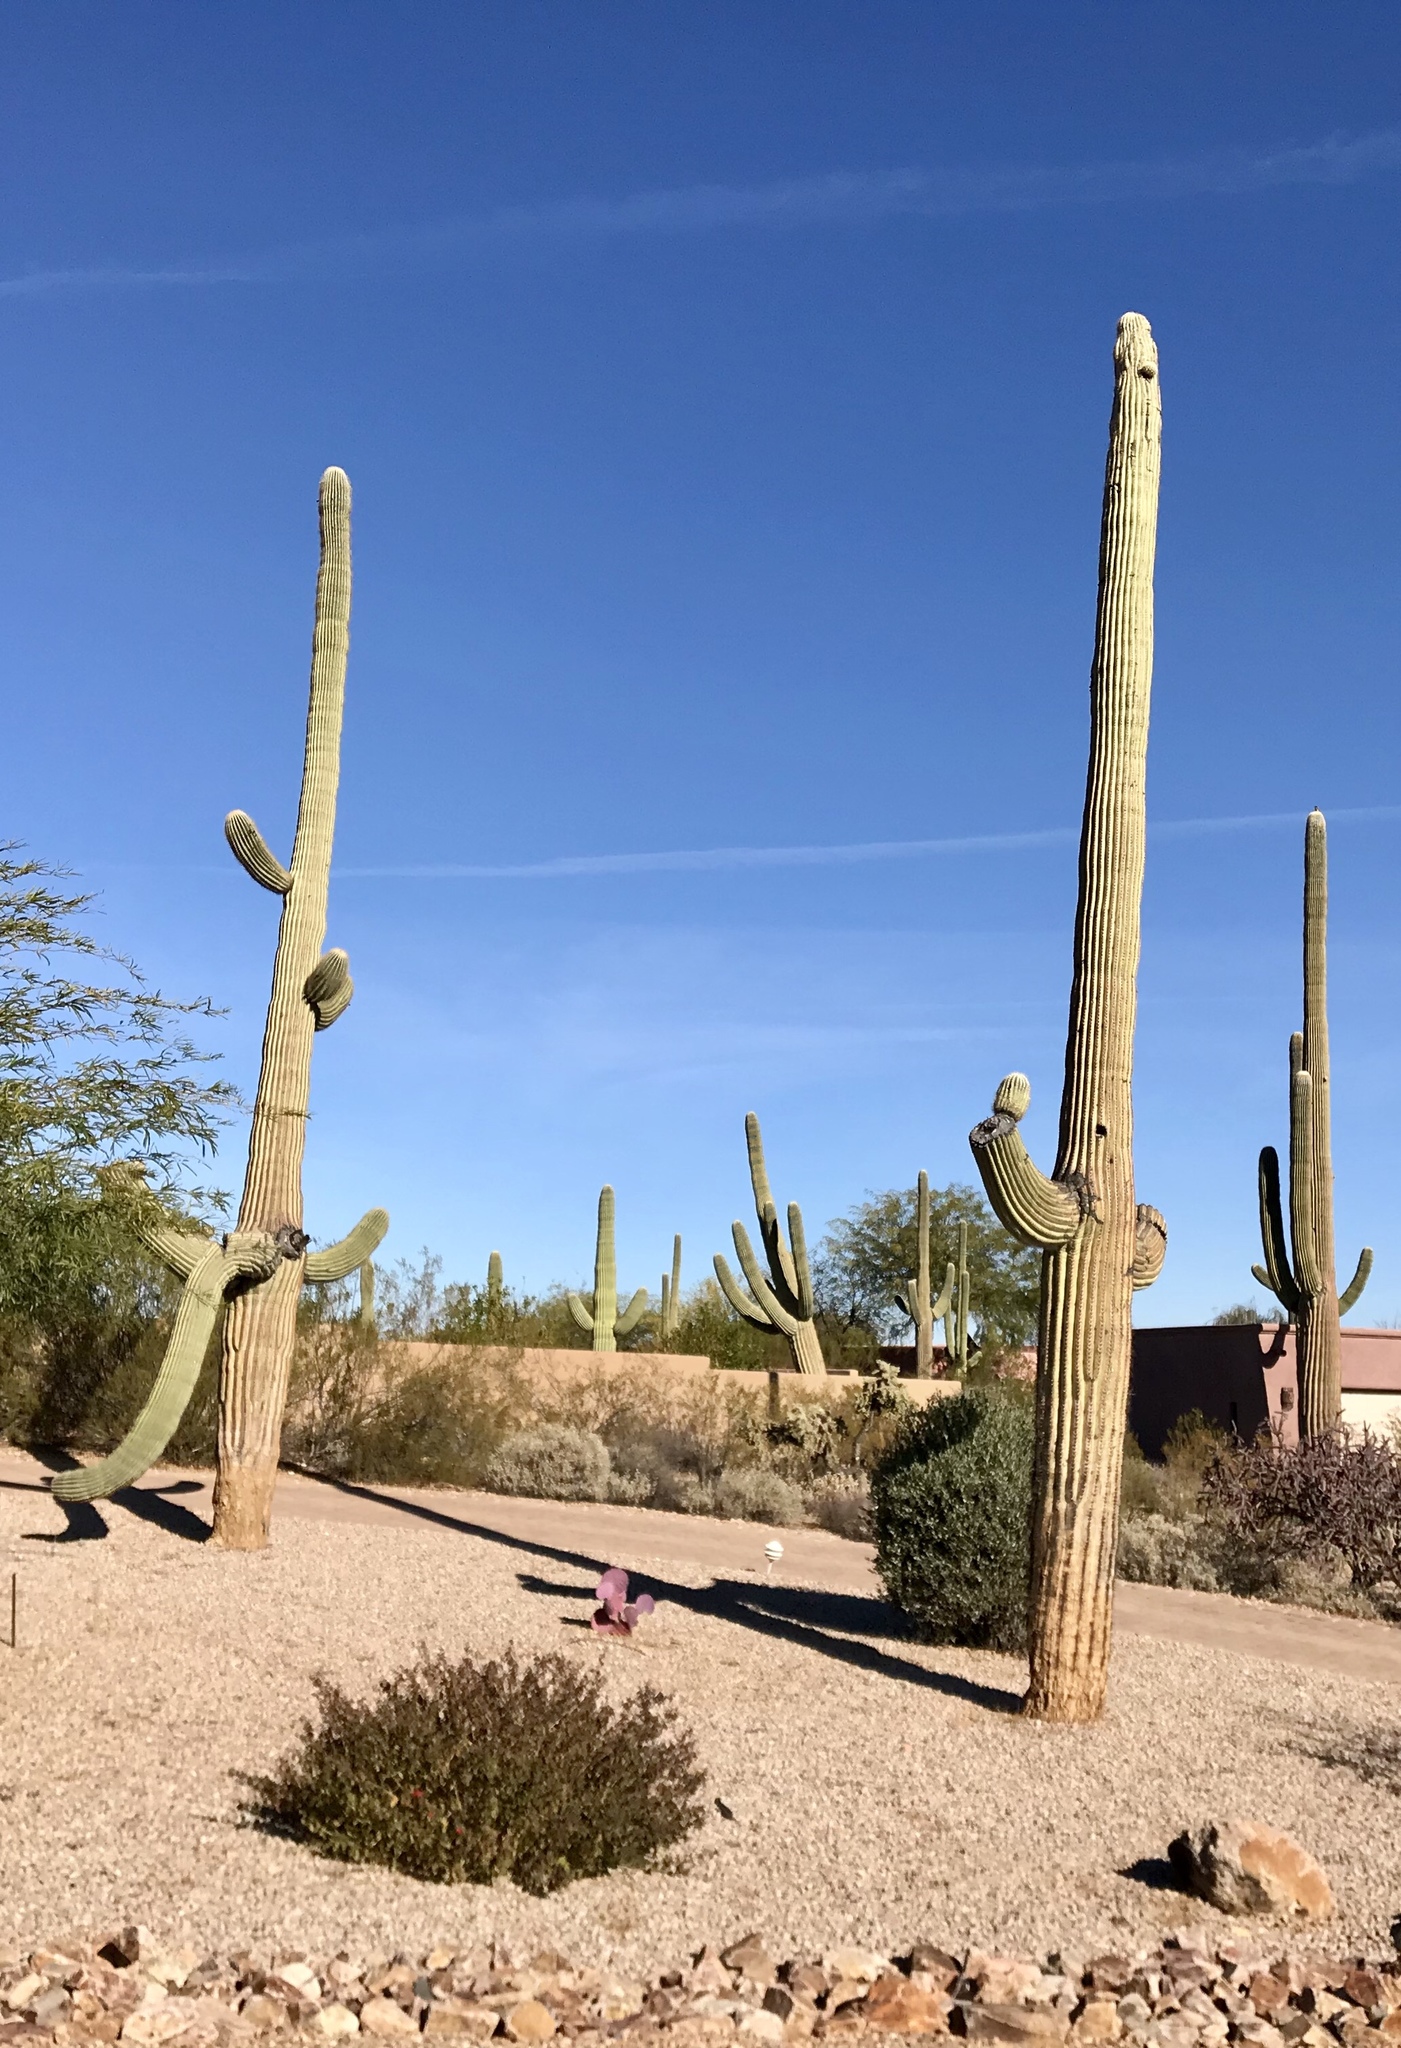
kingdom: Plantae
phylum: Tracheophyta
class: Magnoliopsida
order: Caryophyllales
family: Cactaceae
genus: Carnegiea
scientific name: Carnegiea gigantea
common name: Saguaro
